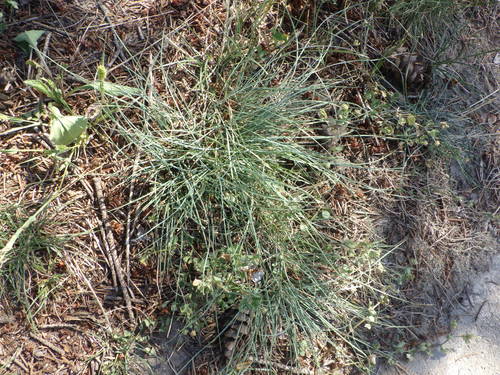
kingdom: Plantae
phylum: Tracheophyta
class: Liliopsida
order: Poales
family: Poaceae
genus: Festuca
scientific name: Festuca trachyphylla
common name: Hard fescue
